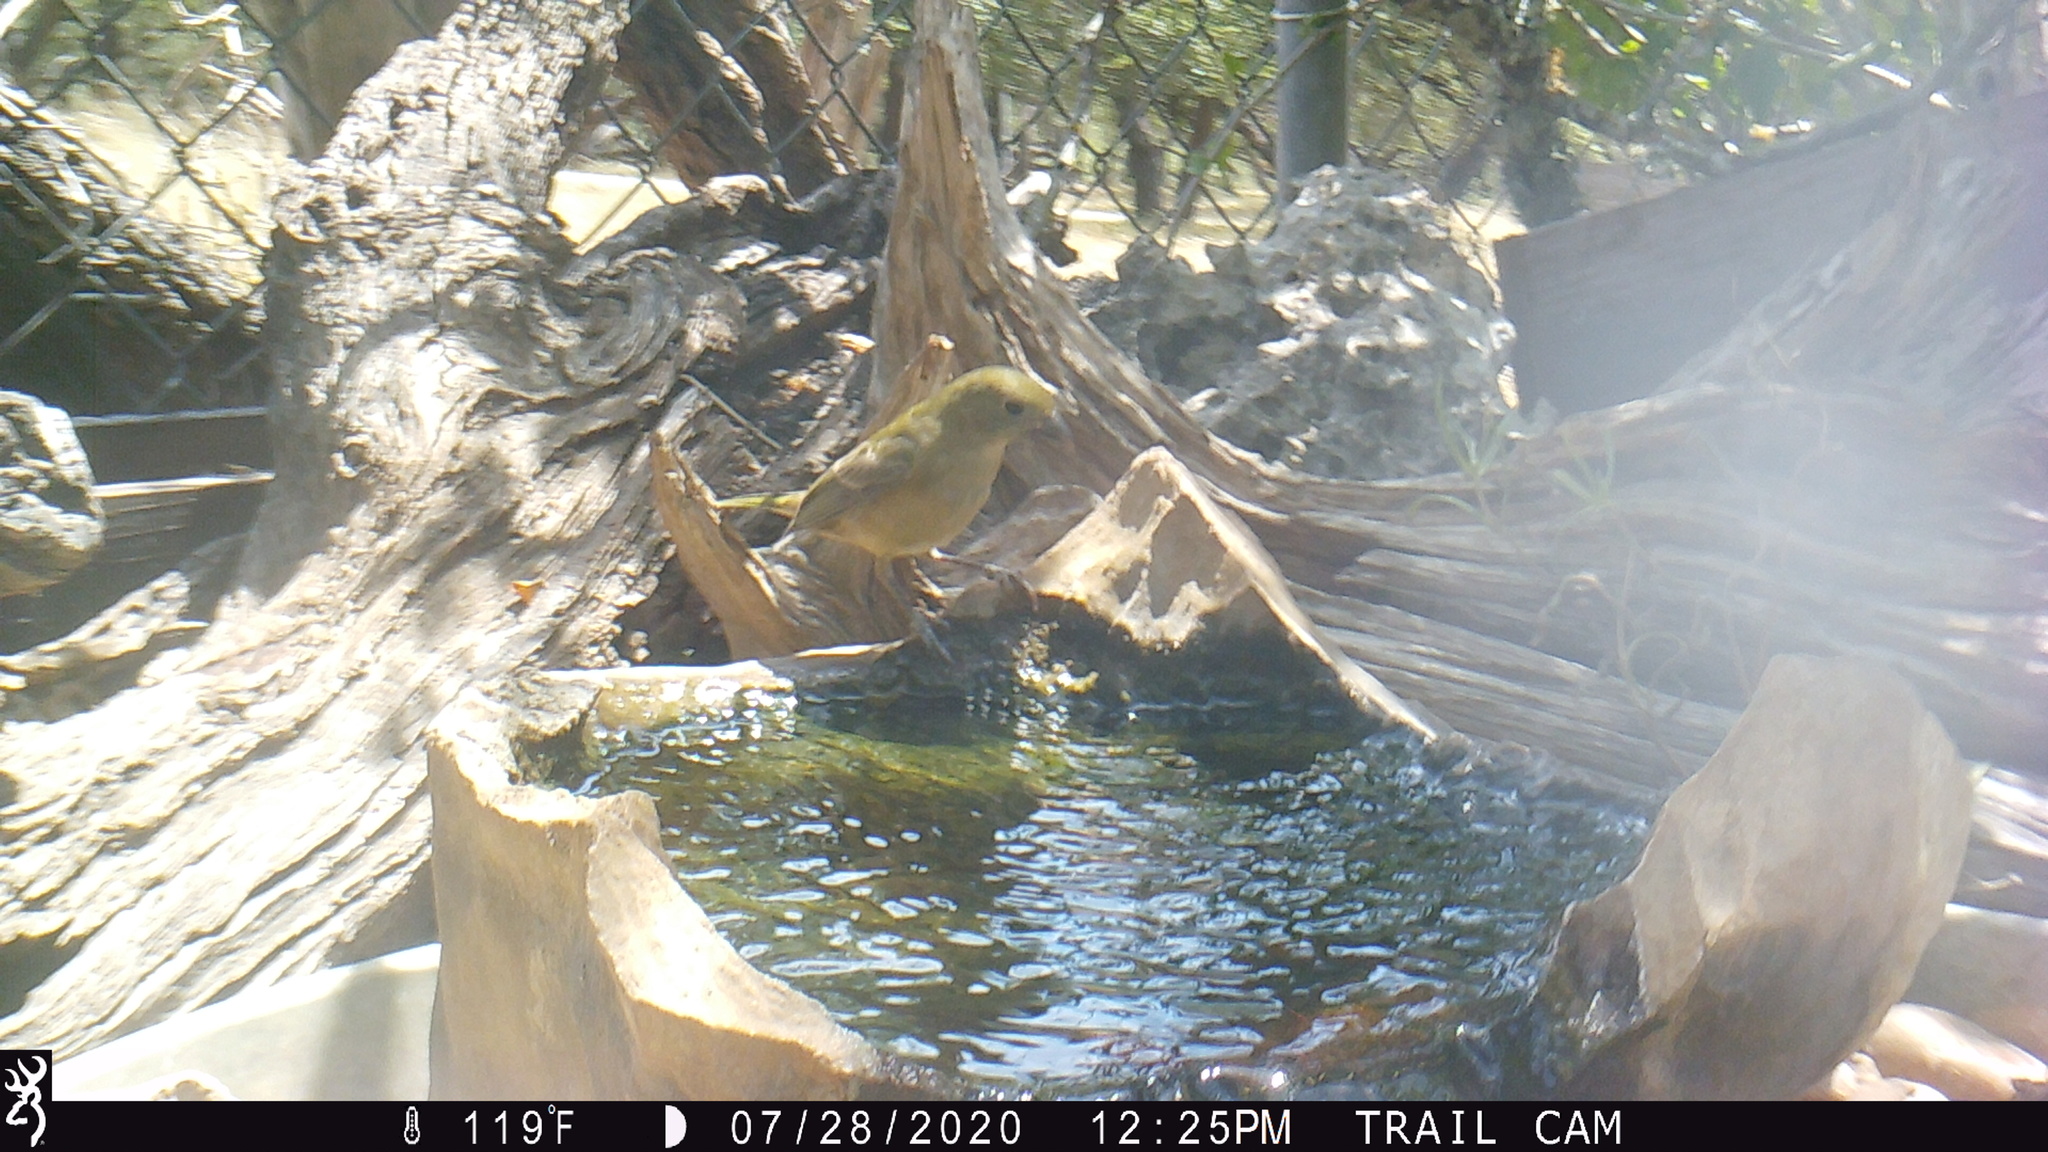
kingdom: Animalia
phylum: Chordata
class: Aves
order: Passeriformes
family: Cardinalidae
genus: Passerina
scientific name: Passerina ciris
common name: Painted bunting
